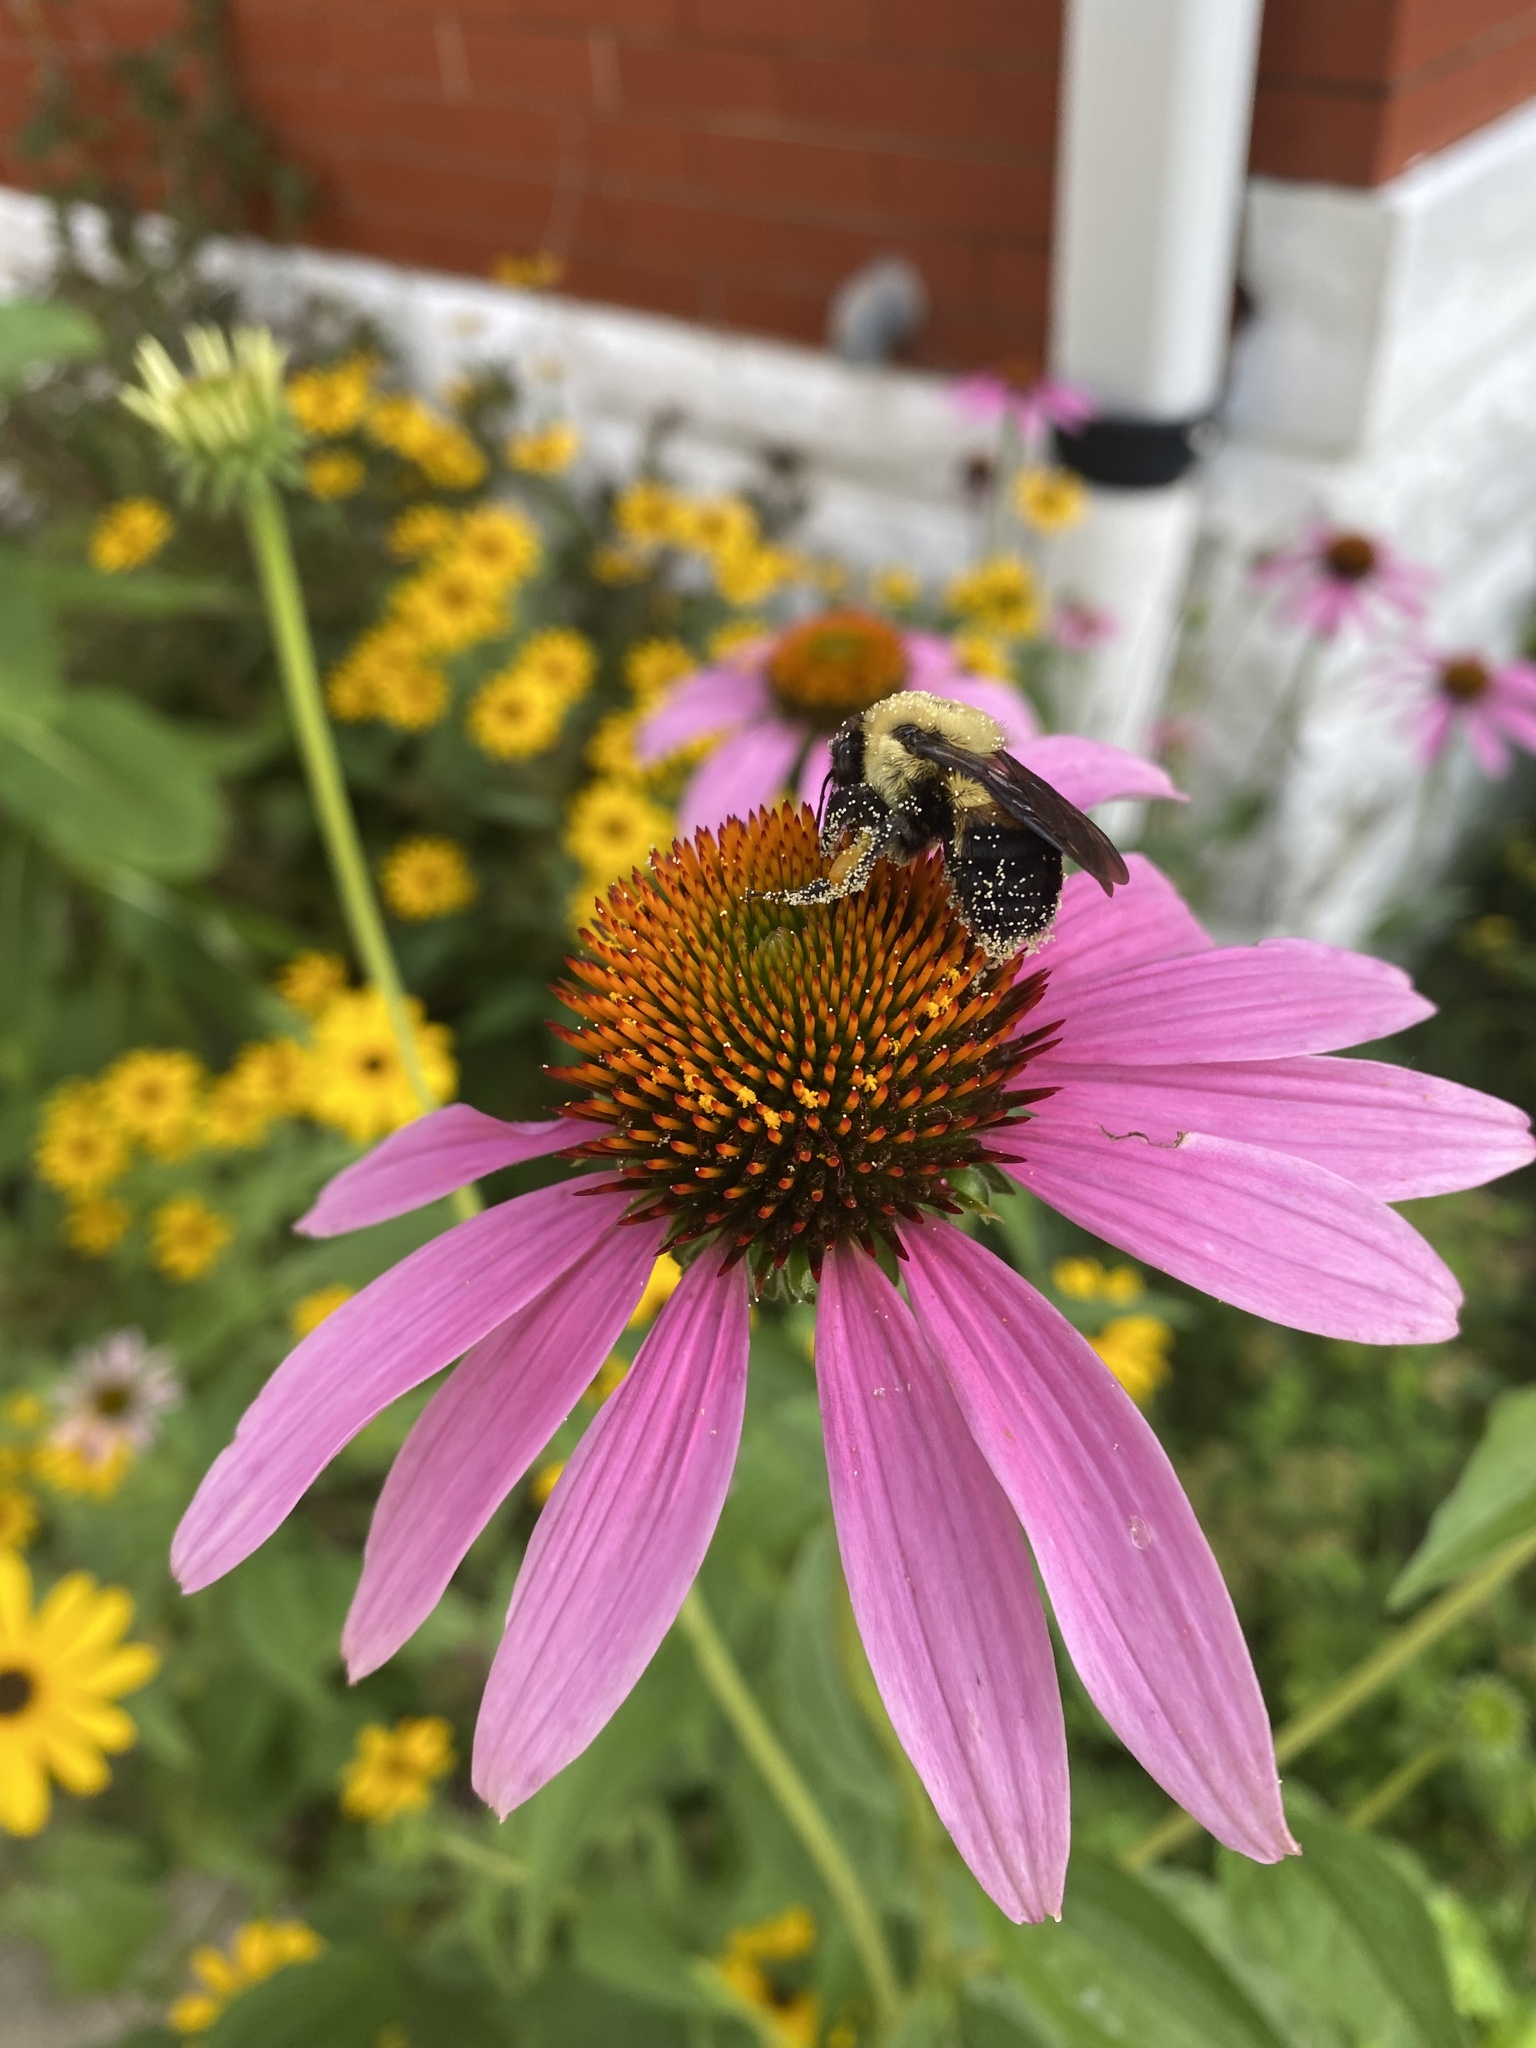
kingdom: Animalia
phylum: Arthropoda
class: Insecta
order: Hymenoptera
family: Apidae
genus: Bombus
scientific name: Bombus griseocollis
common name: Brown-belted bumble bee
